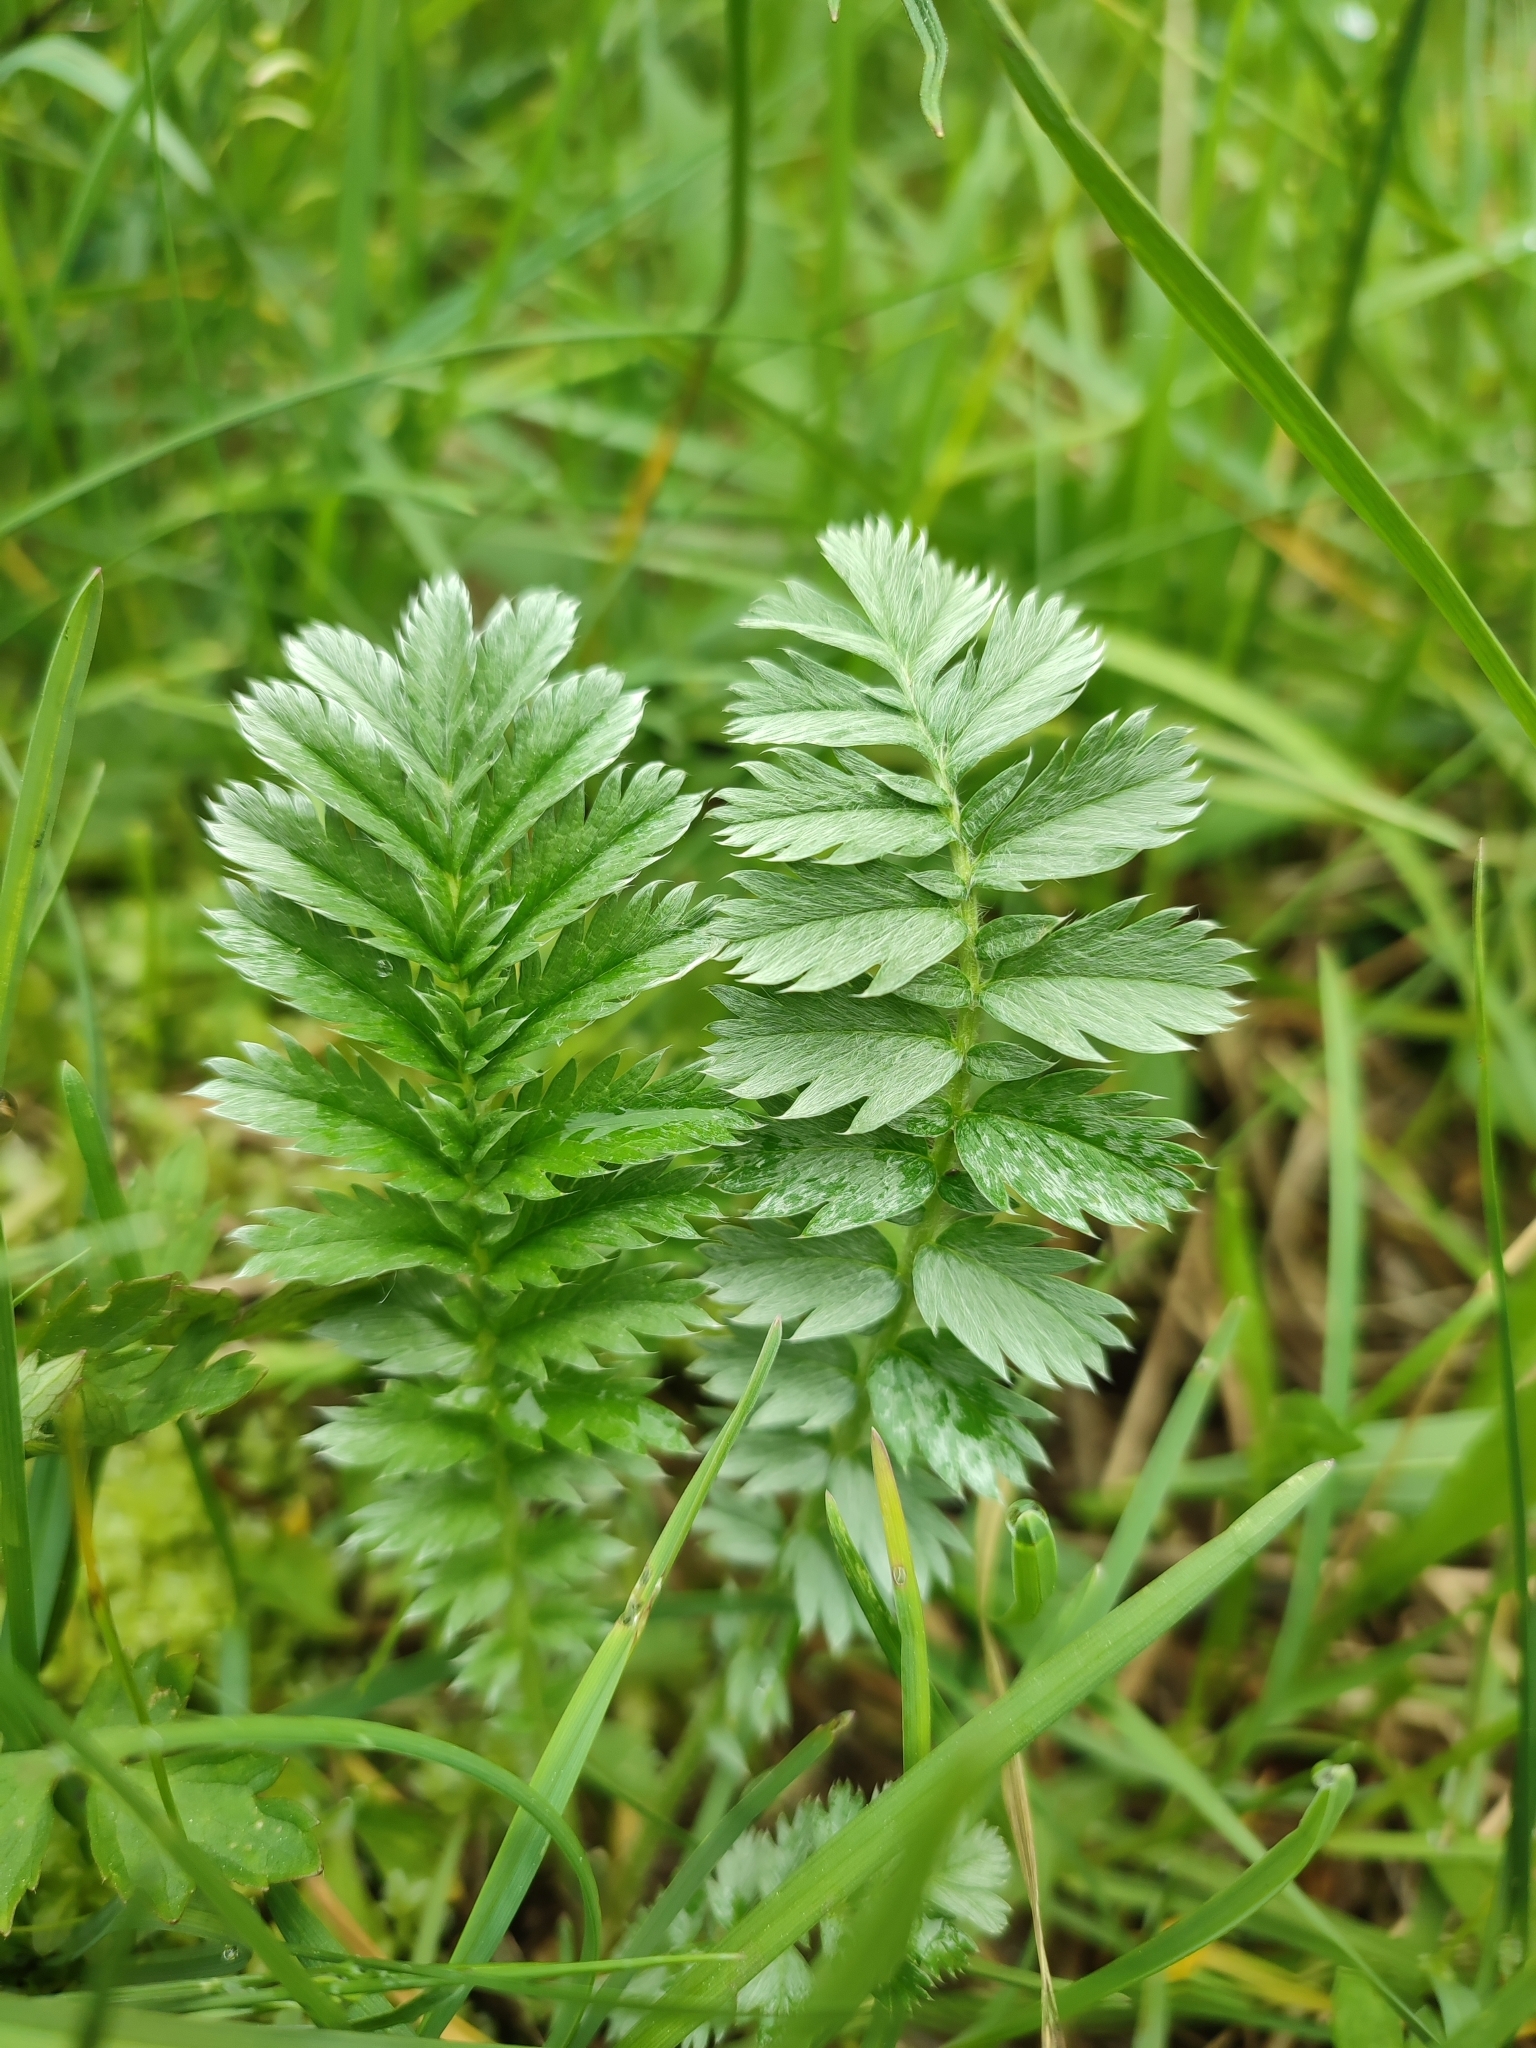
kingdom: Plantae
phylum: Tracheophyta
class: Magnoliopsida
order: Rosales
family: Rosaceae
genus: Argentina
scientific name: Argentina anserina
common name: Common silverweed
